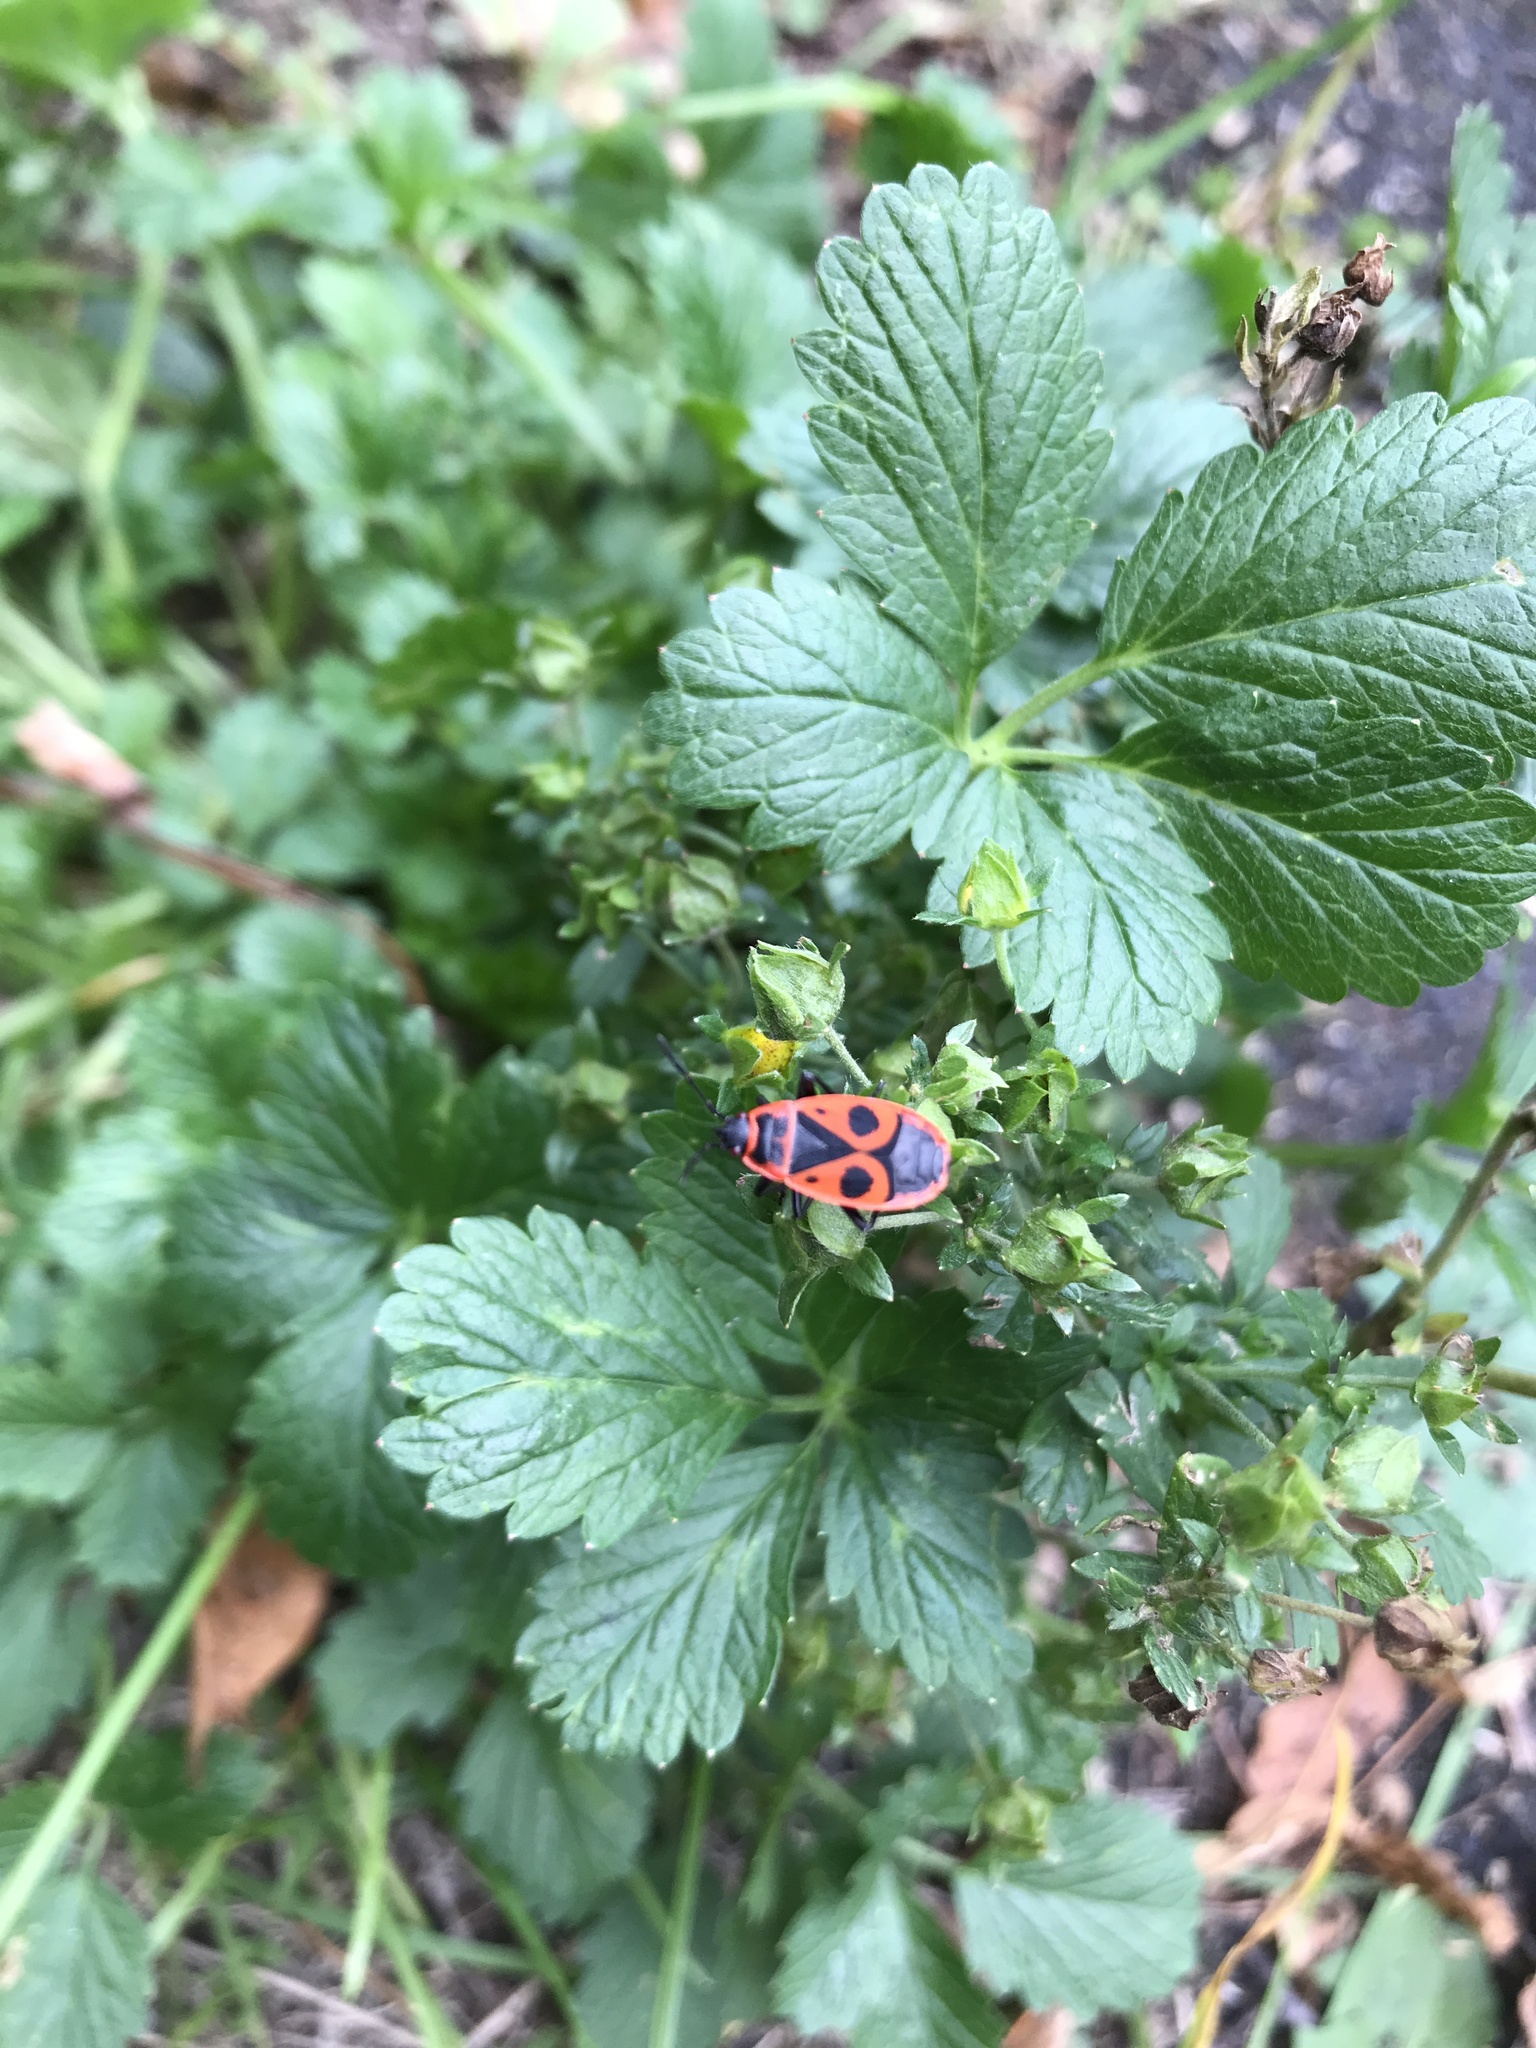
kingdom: Animalia
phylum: Arthropoda
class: Insecta
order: Hemiptera
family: Pyrrhocoridae
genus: Pyrrhocoris
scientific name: Pyrrhocoris apterus
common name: Firebug
